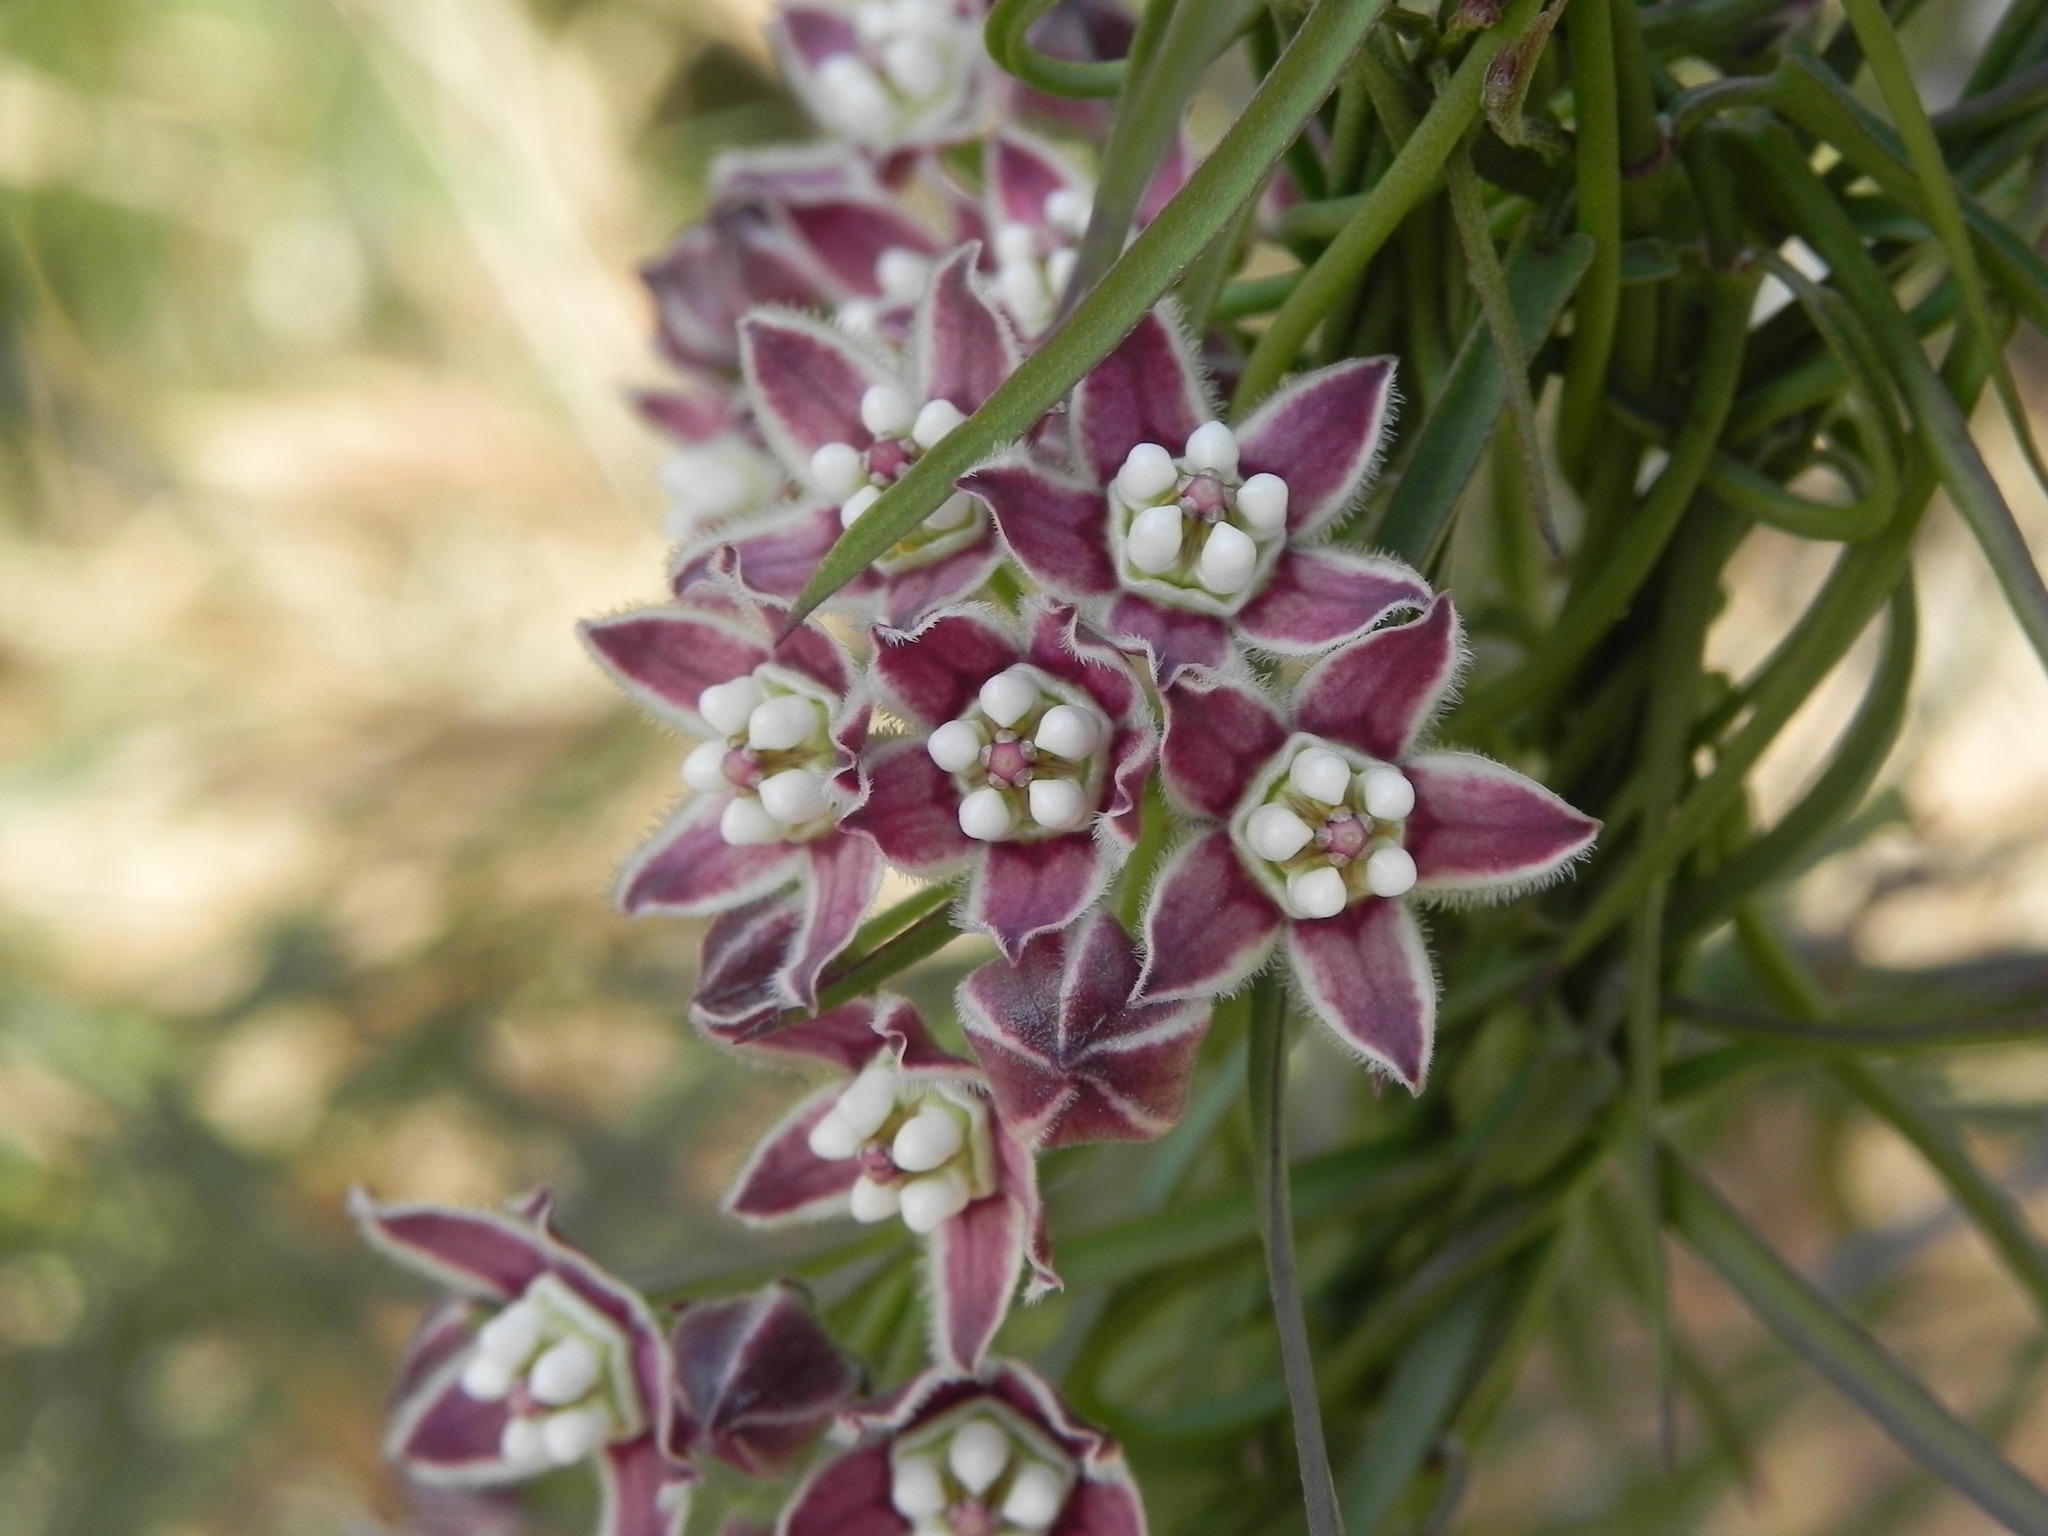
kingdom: Plantae
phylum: Tracheophyta
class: Magnoliopsida
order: Gentianales
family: Apocynaceae
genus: Funastrum
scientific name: Funastrum heterophyllum
